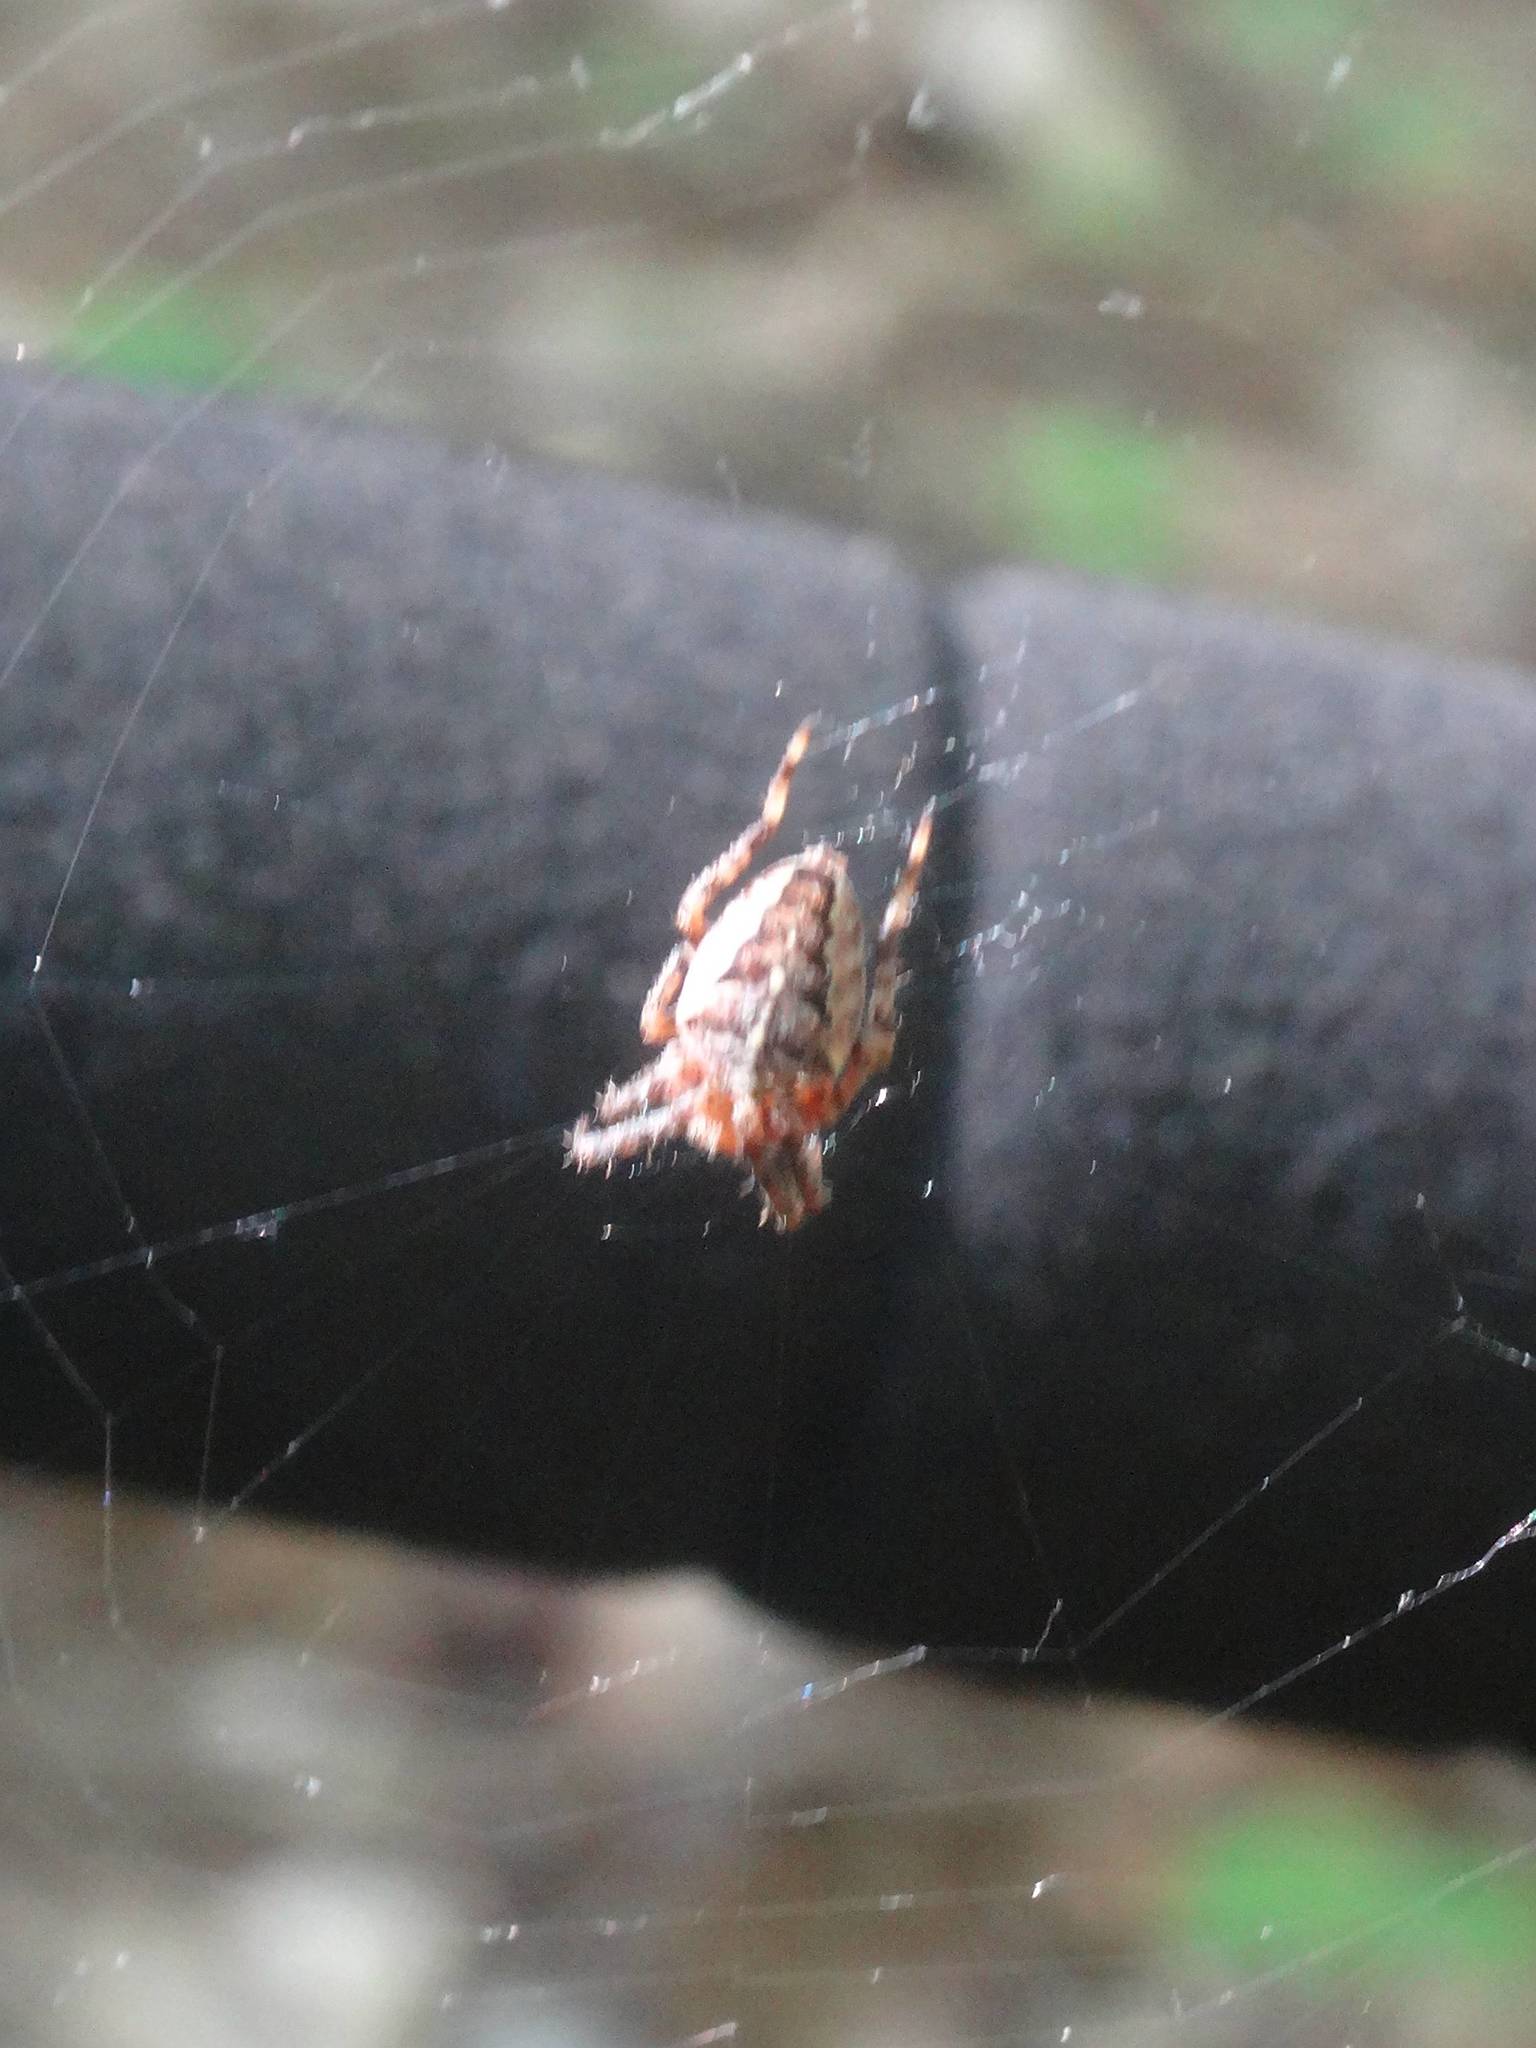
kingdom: Animalia
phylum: Arthropoda
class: Arachnida
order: Araneae
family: Araneidae
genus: Araneus
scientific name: Araneus diadematus
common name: Cross orbweaver
